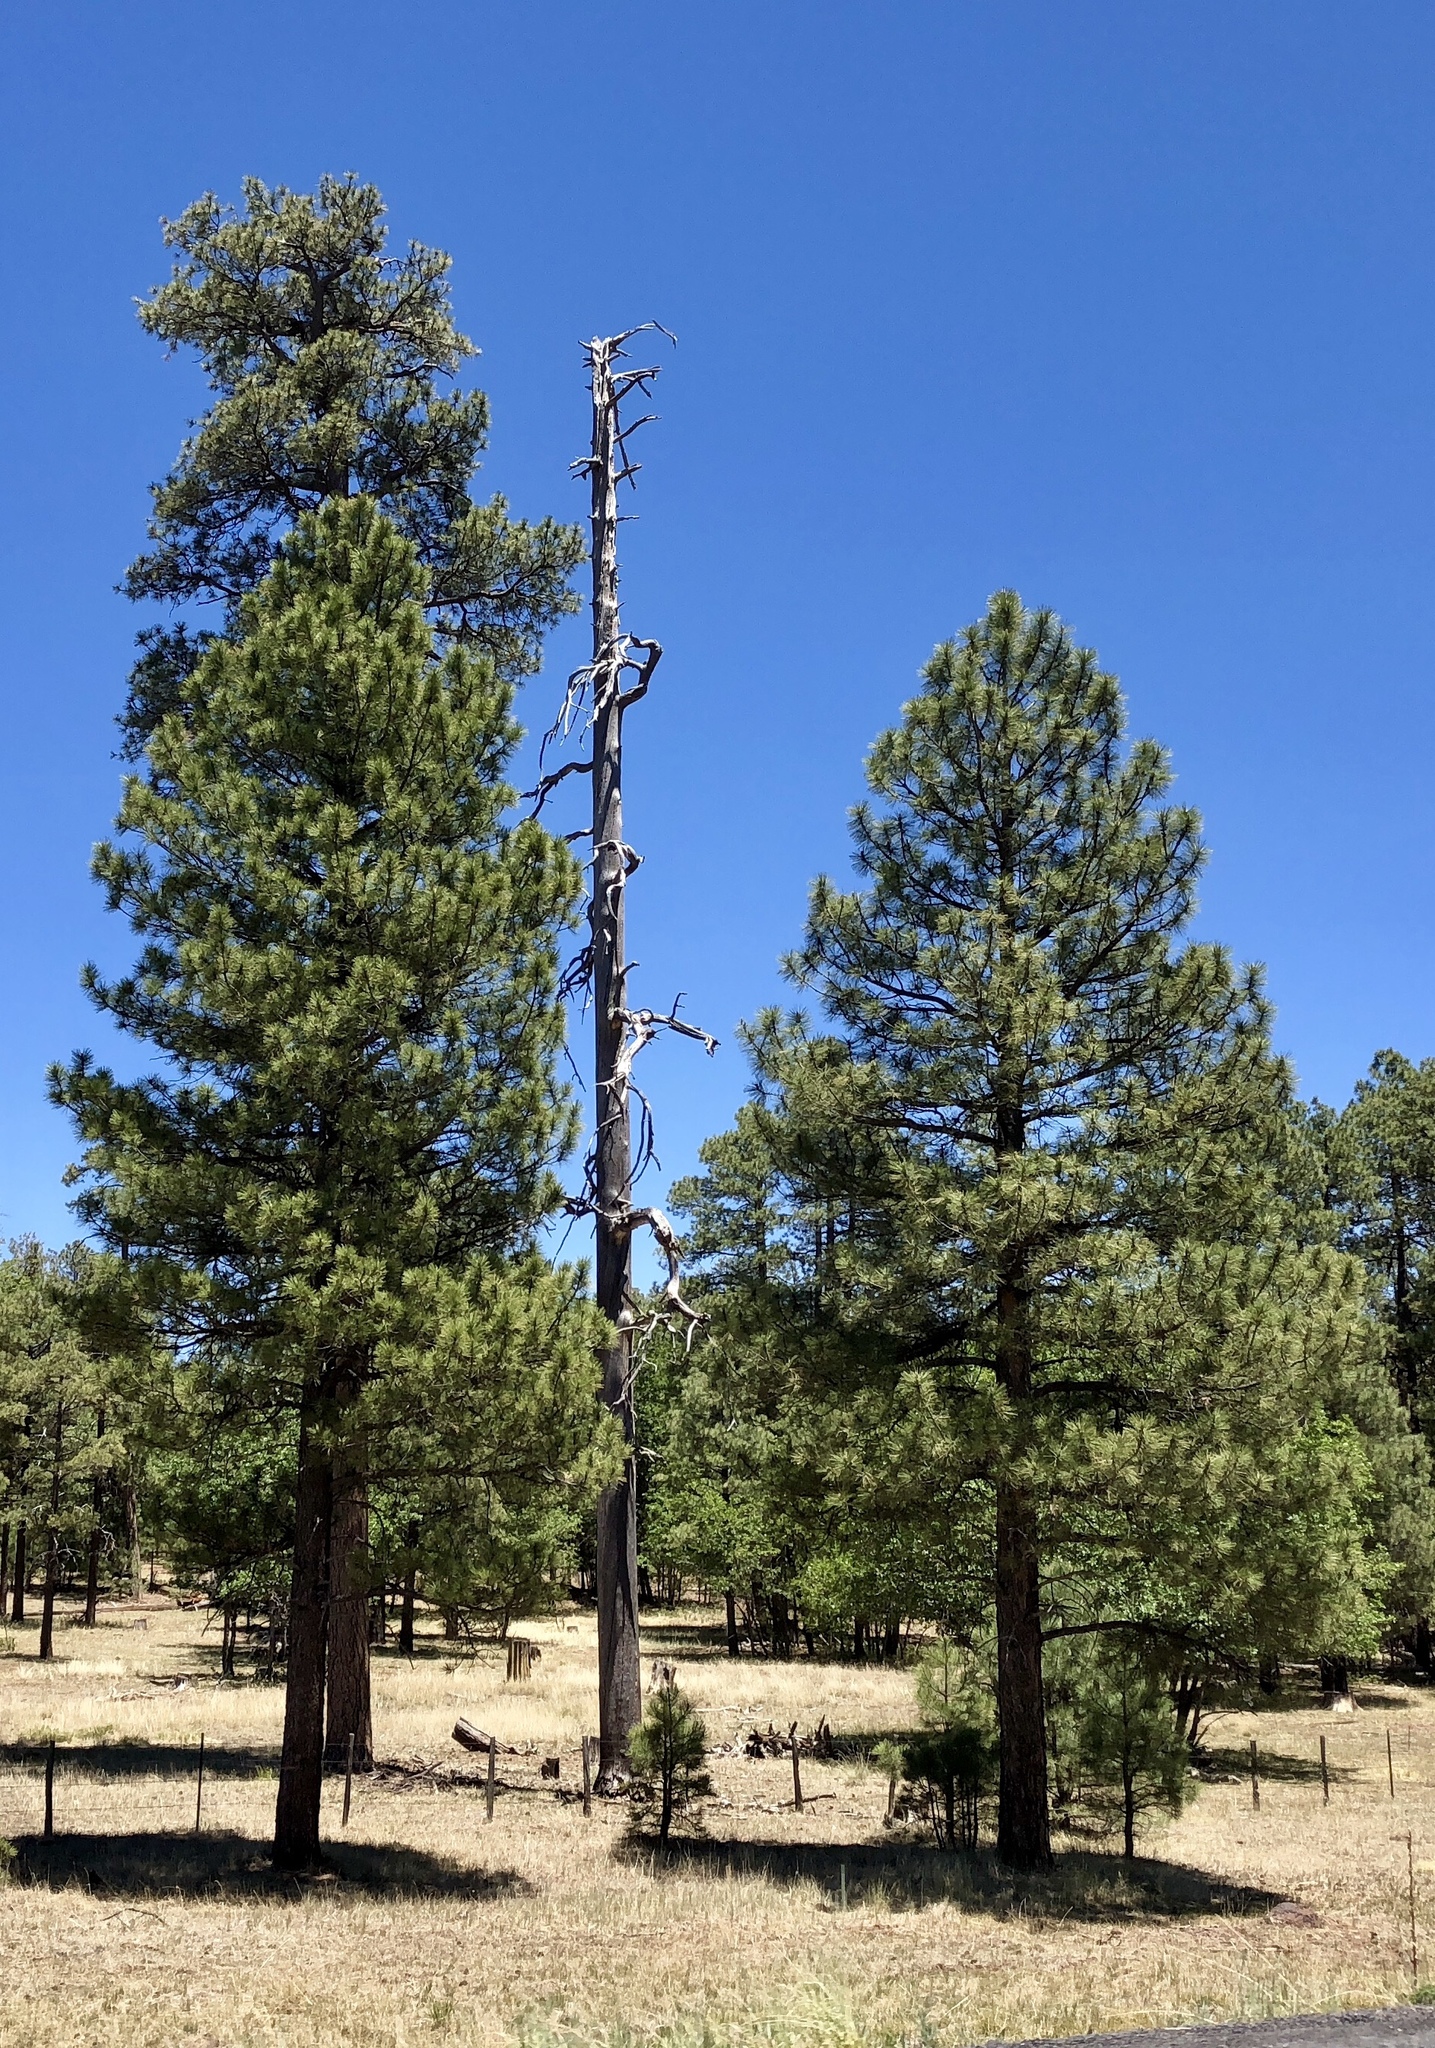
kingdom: Plantae
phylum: Tracheophyta
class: Pinopsida
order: Pinales
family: Pinaceae
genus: Pinus
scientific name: Pinus ponderosa
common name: Western yellow-pine
